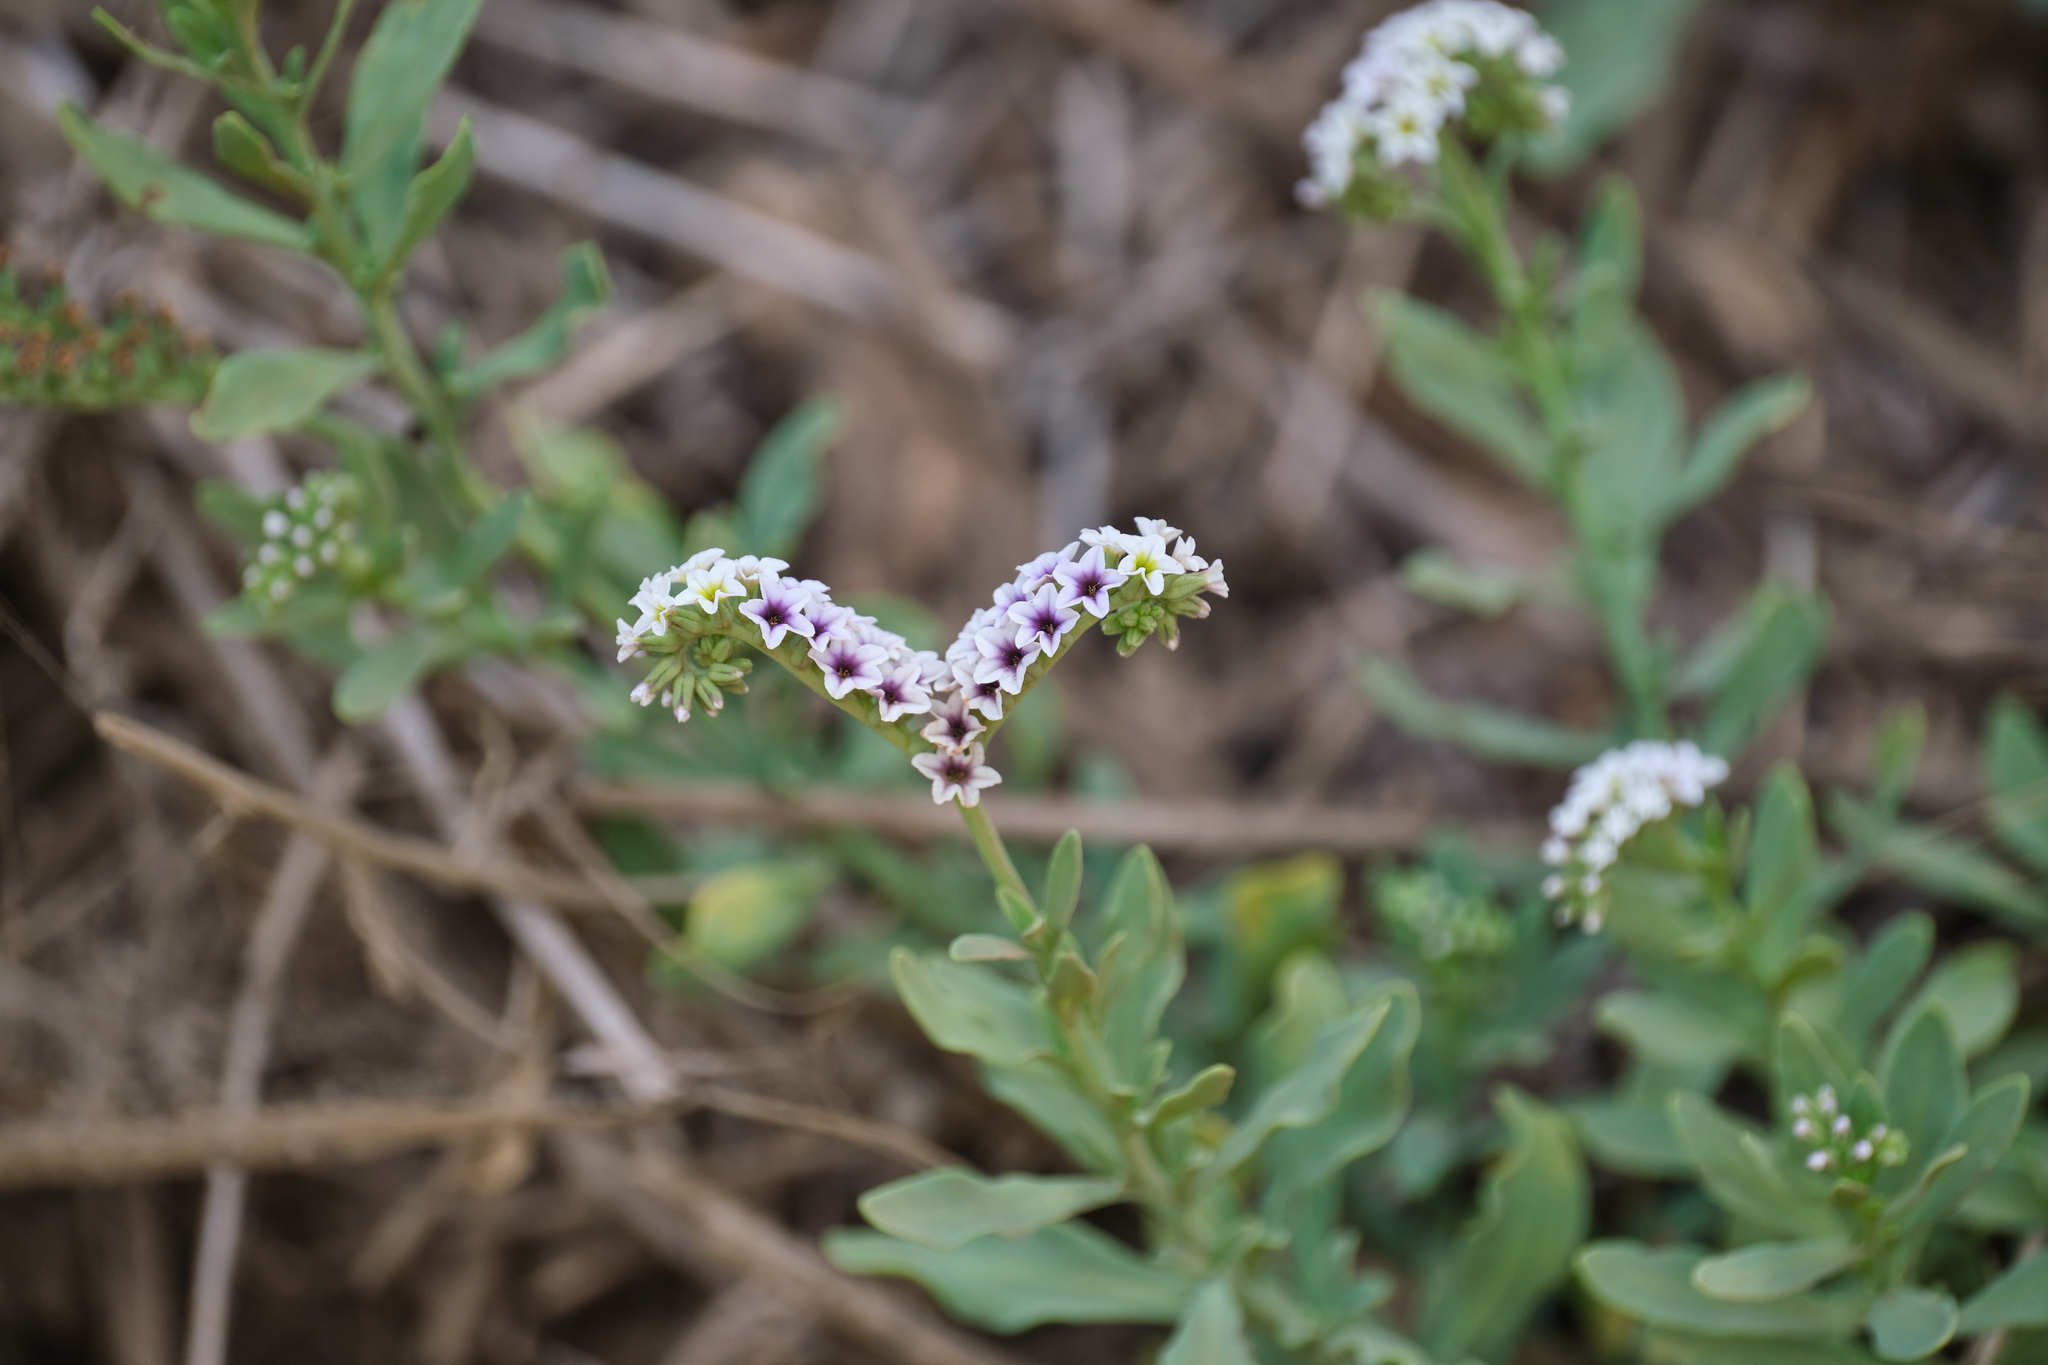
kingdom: Plantae
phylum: Tracheophyta
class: Magnoliopsida
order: Boraginales
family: Heliotropiaceae
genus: Heliotropium
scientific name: Heliotropium curassavicum
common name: Seaside heliotrope
